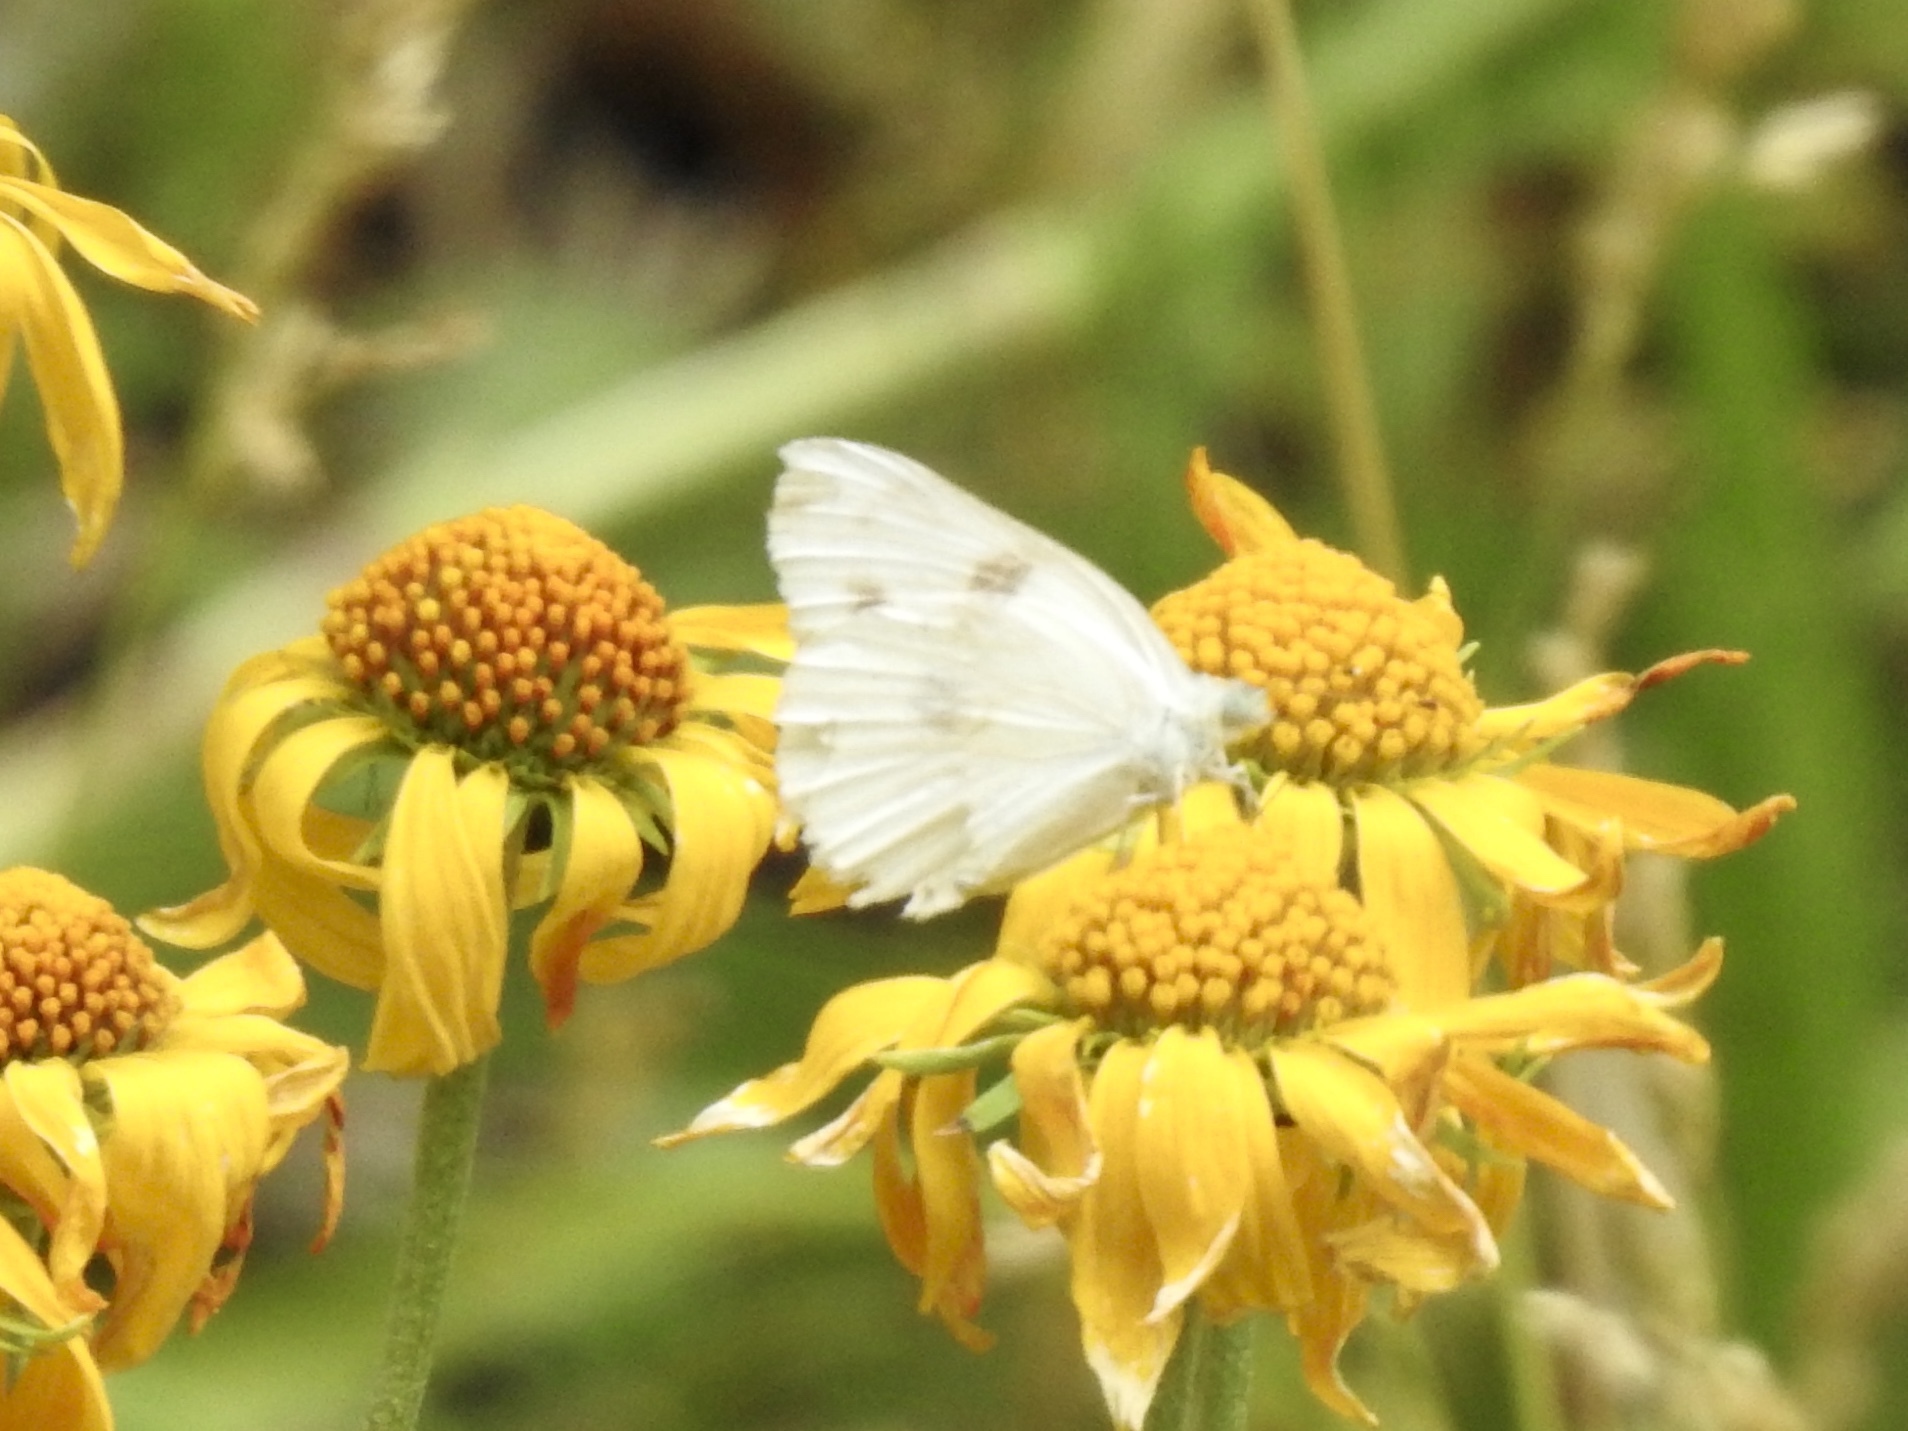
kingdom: Animalia
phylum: Arthropoda
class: Insecta
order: Lepidoptera
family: Pieridae
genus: Pontia
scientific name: Pontia protodice
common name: Checkered white
